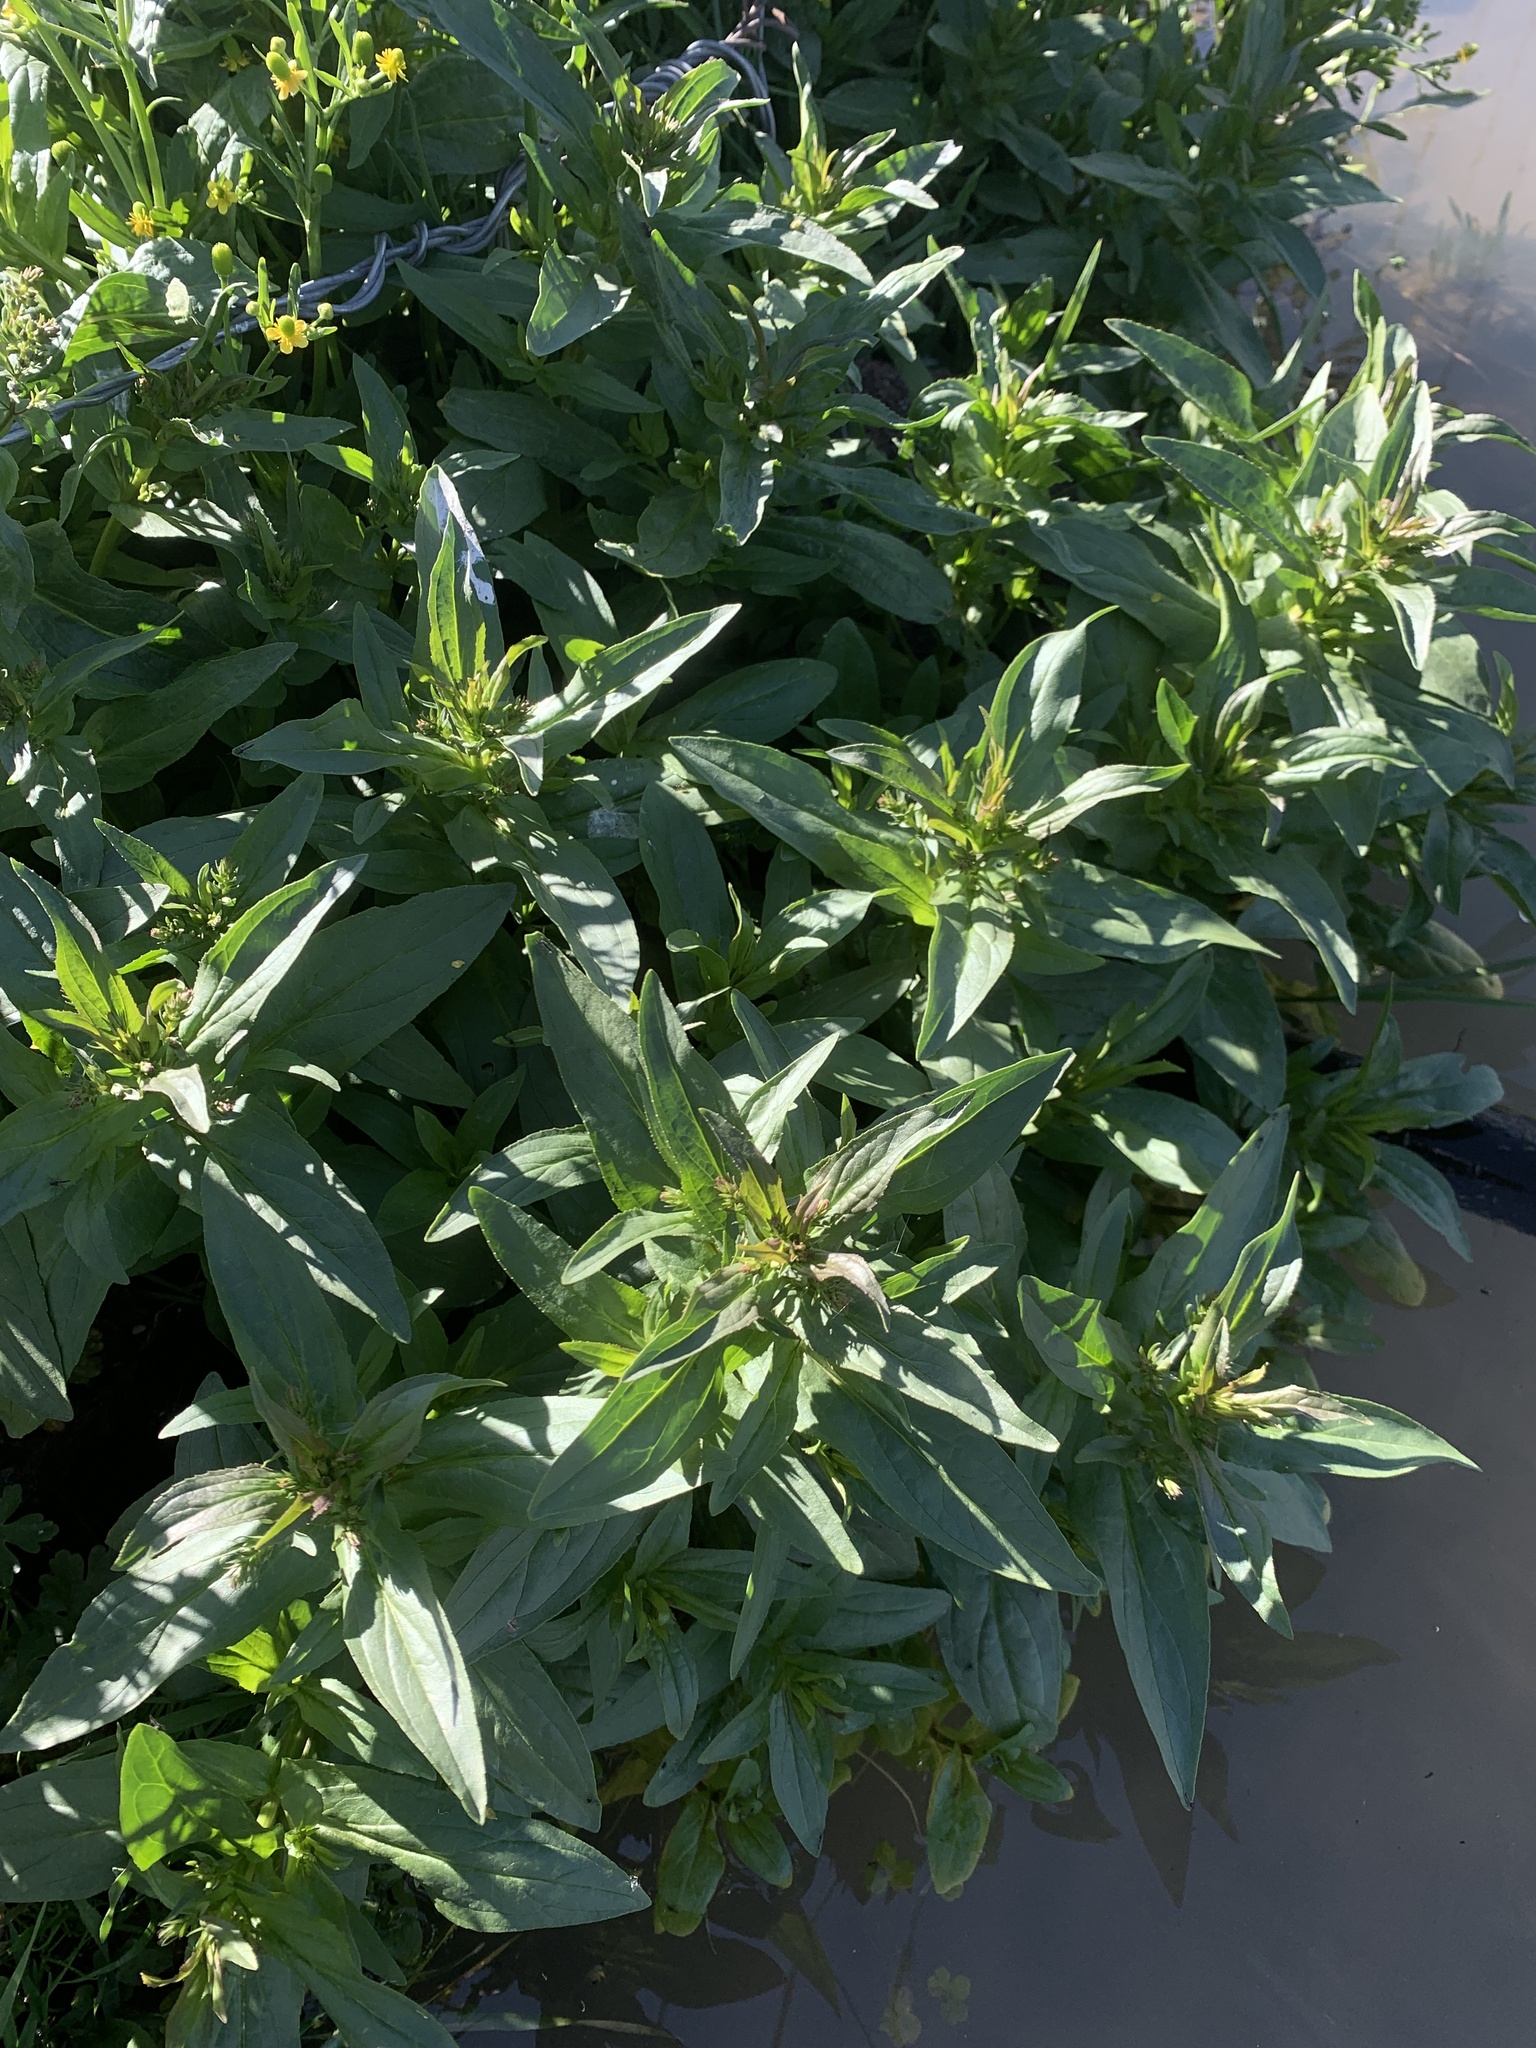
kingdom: Plantae
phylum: Tracheophyta
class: Magnoliopsida
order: Lamiales
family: Plantaginaceae
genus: Veronica
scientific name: Veronica anagallis-aquatica
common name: Water speedwell
